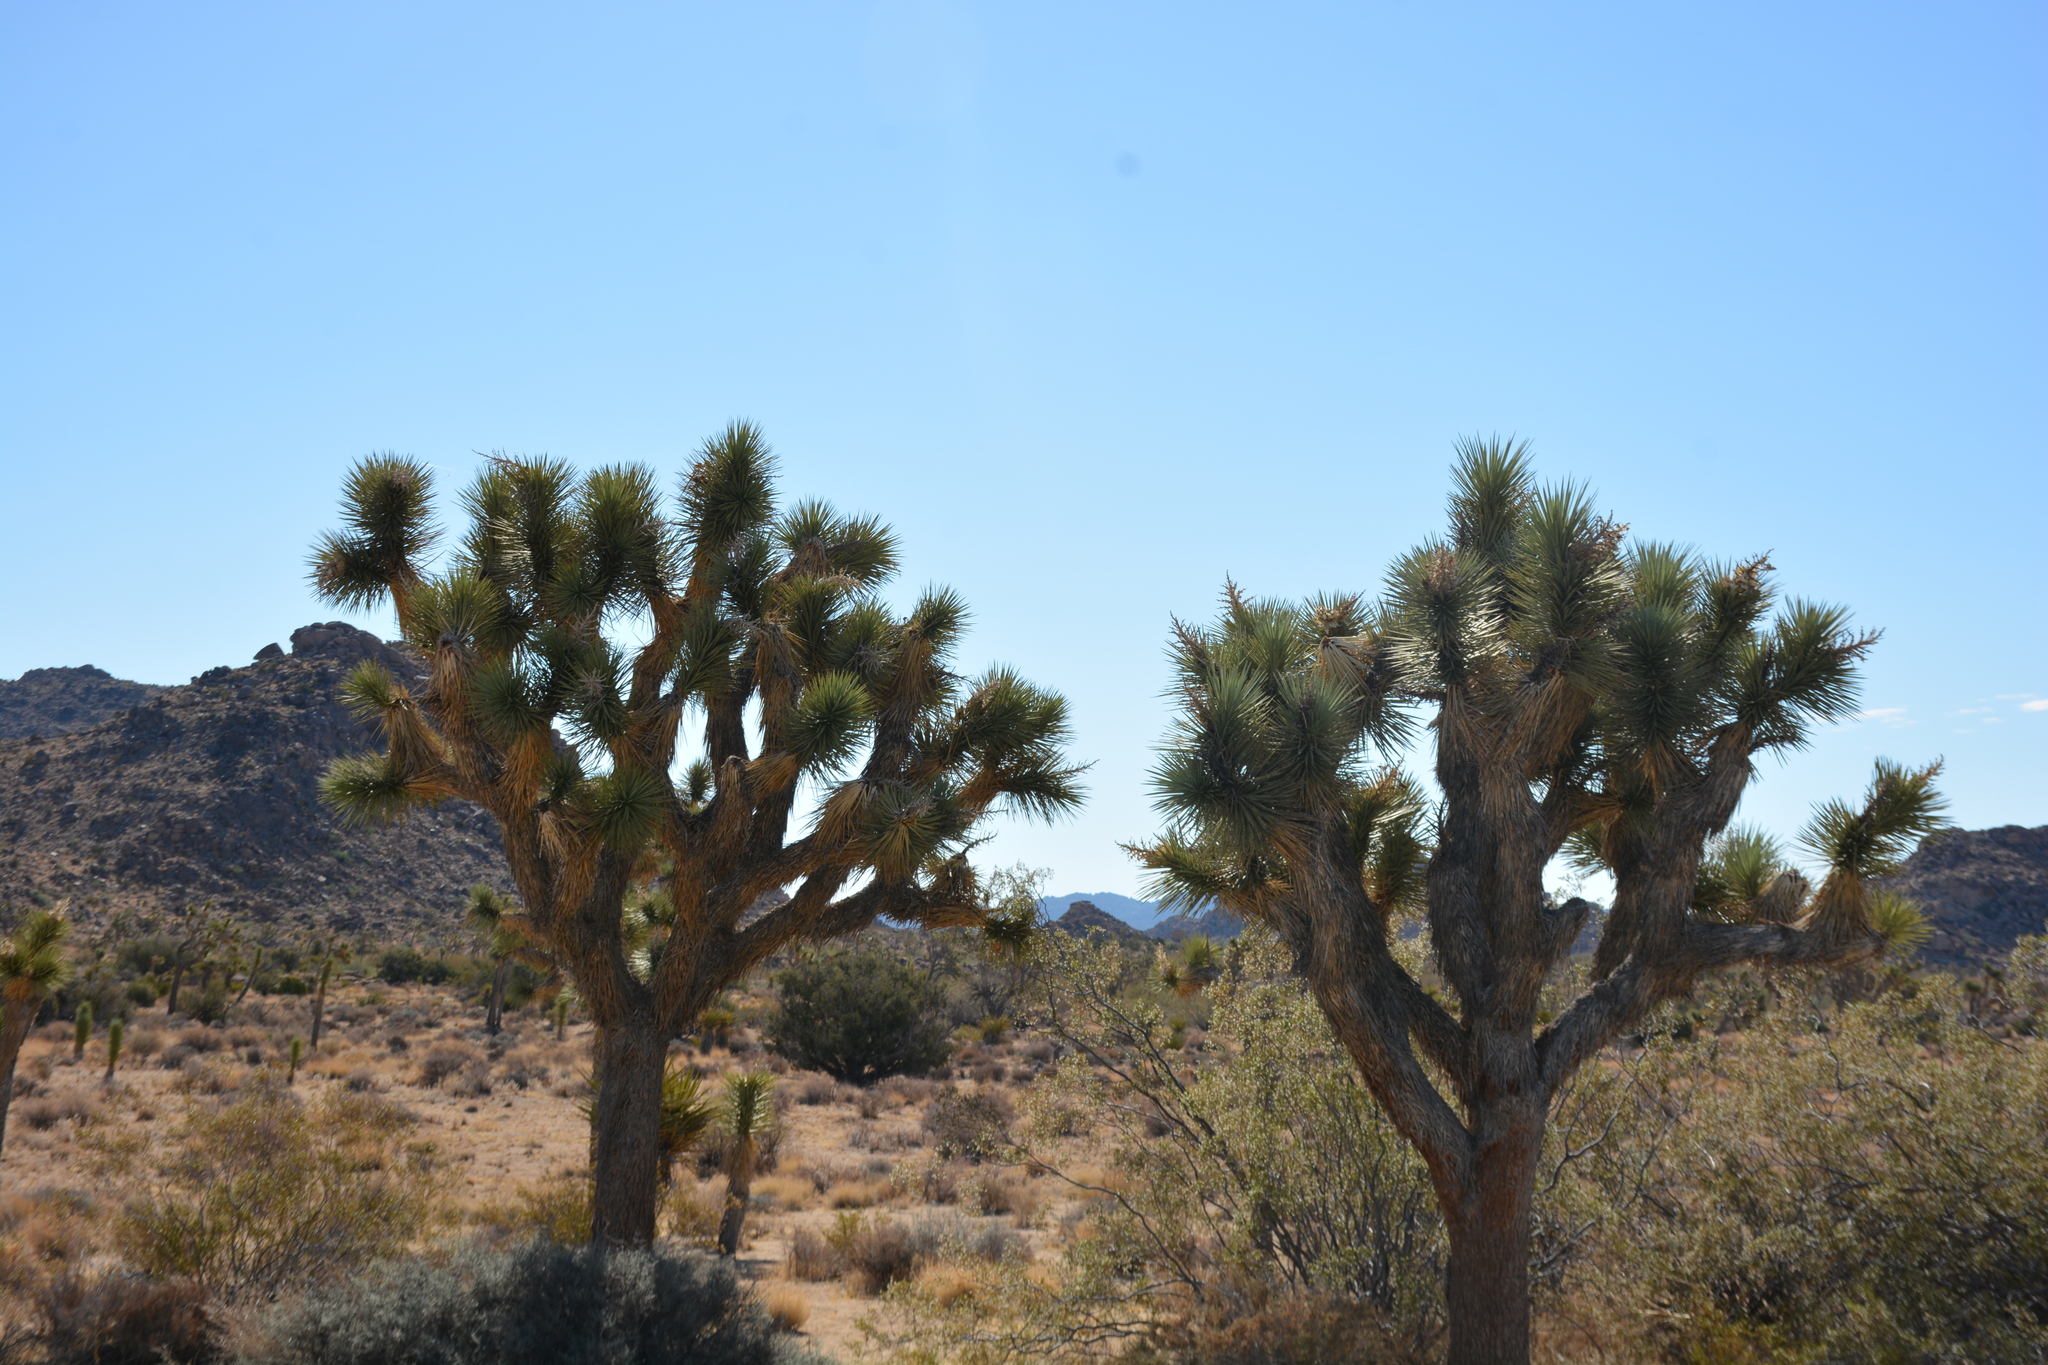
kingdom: Plantae
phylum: Tracheophyta
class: Liliopsida
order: Asparagales
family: Asparagaceae
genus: Yucca
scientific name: Yucca brevifolia
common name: Joshua tree
